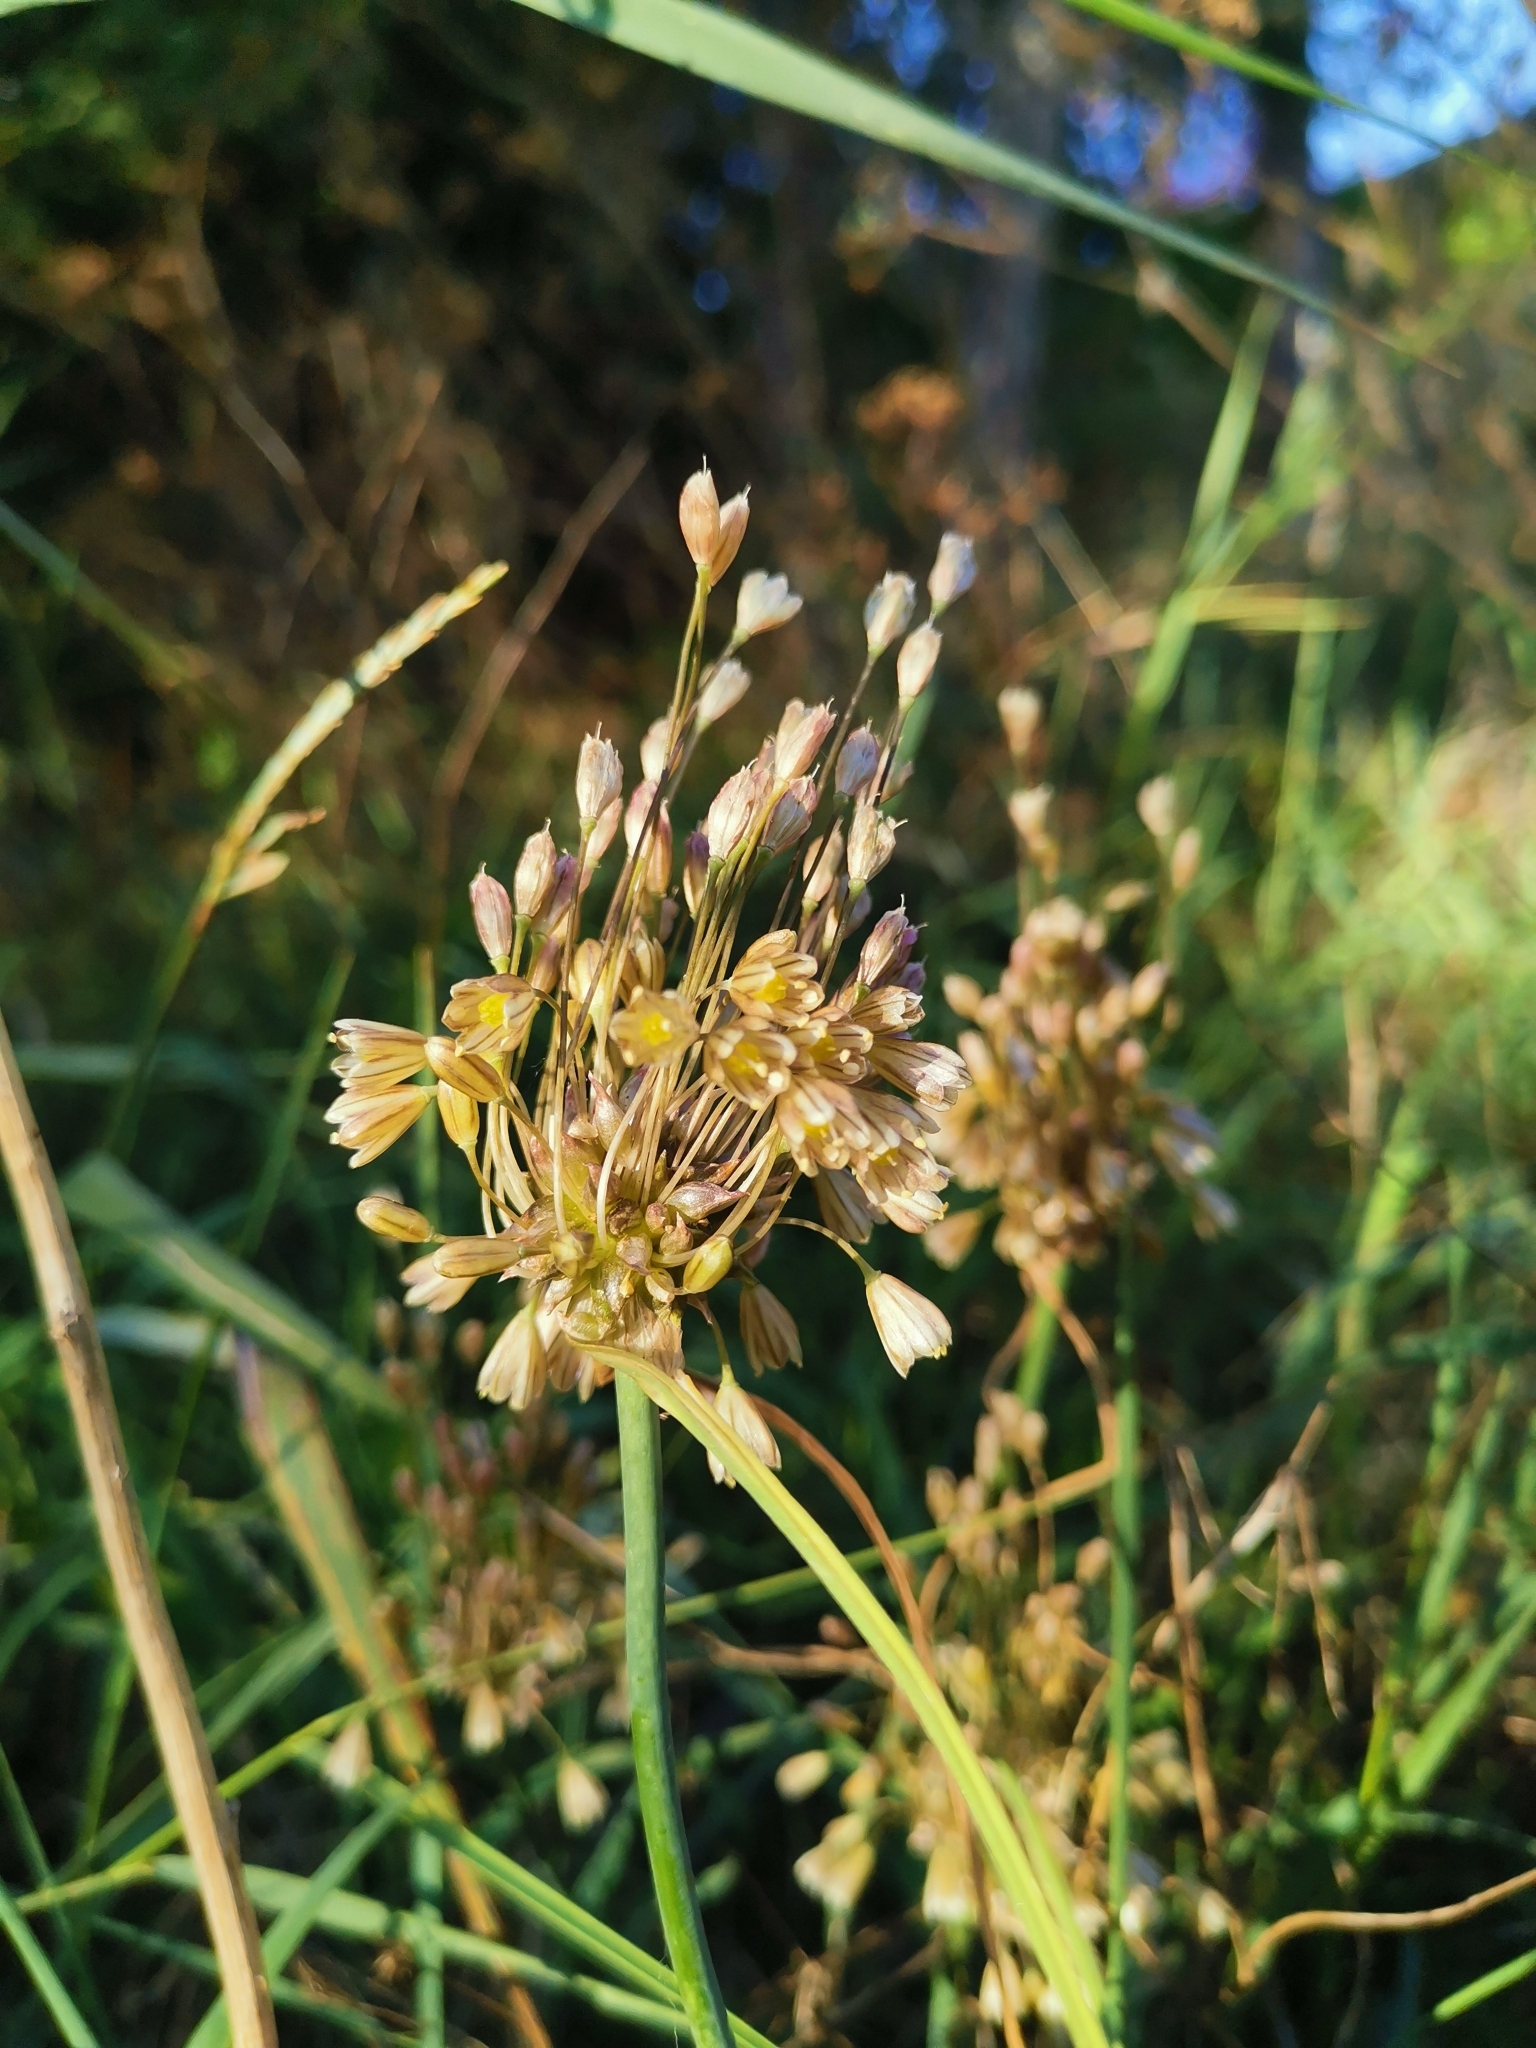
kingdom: Plantae
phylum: Tracheophyta
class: Liliopsida
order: Asparagales
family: Amaryllidaceae
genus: Allium
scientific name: Allium oleraceum
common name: Field garlic
